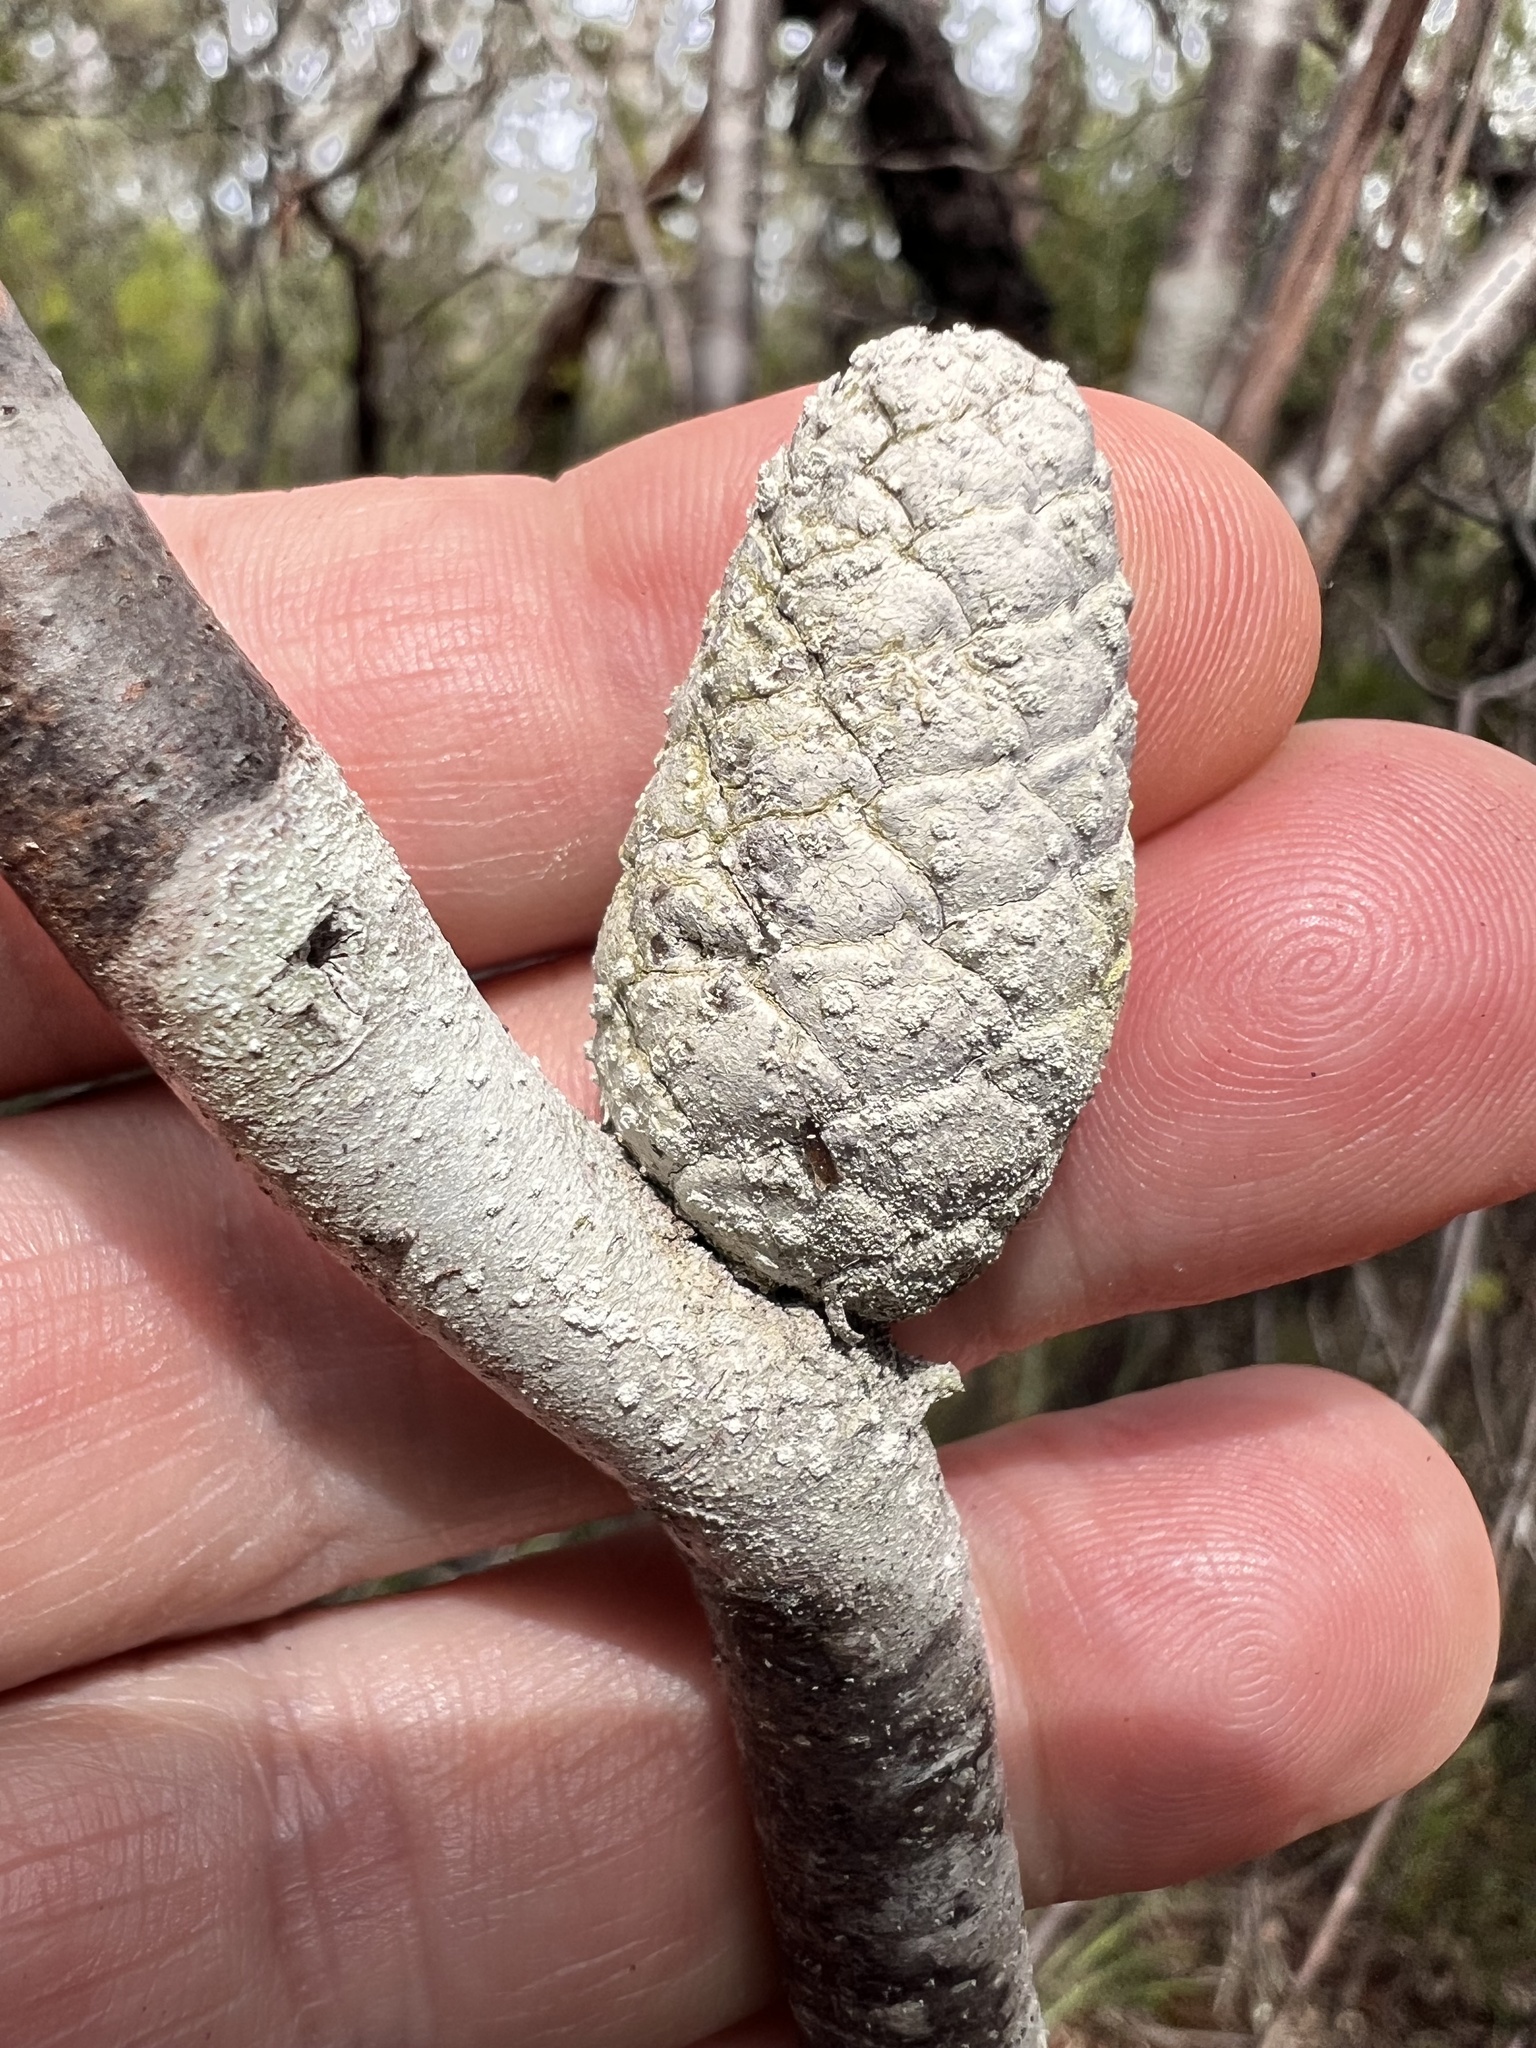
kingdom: Plantae
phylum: Tracheophyta
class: Magnoliopsida
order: Proteales
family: Proteaceae
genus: Petrophile
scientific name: Petrophile pulchella
